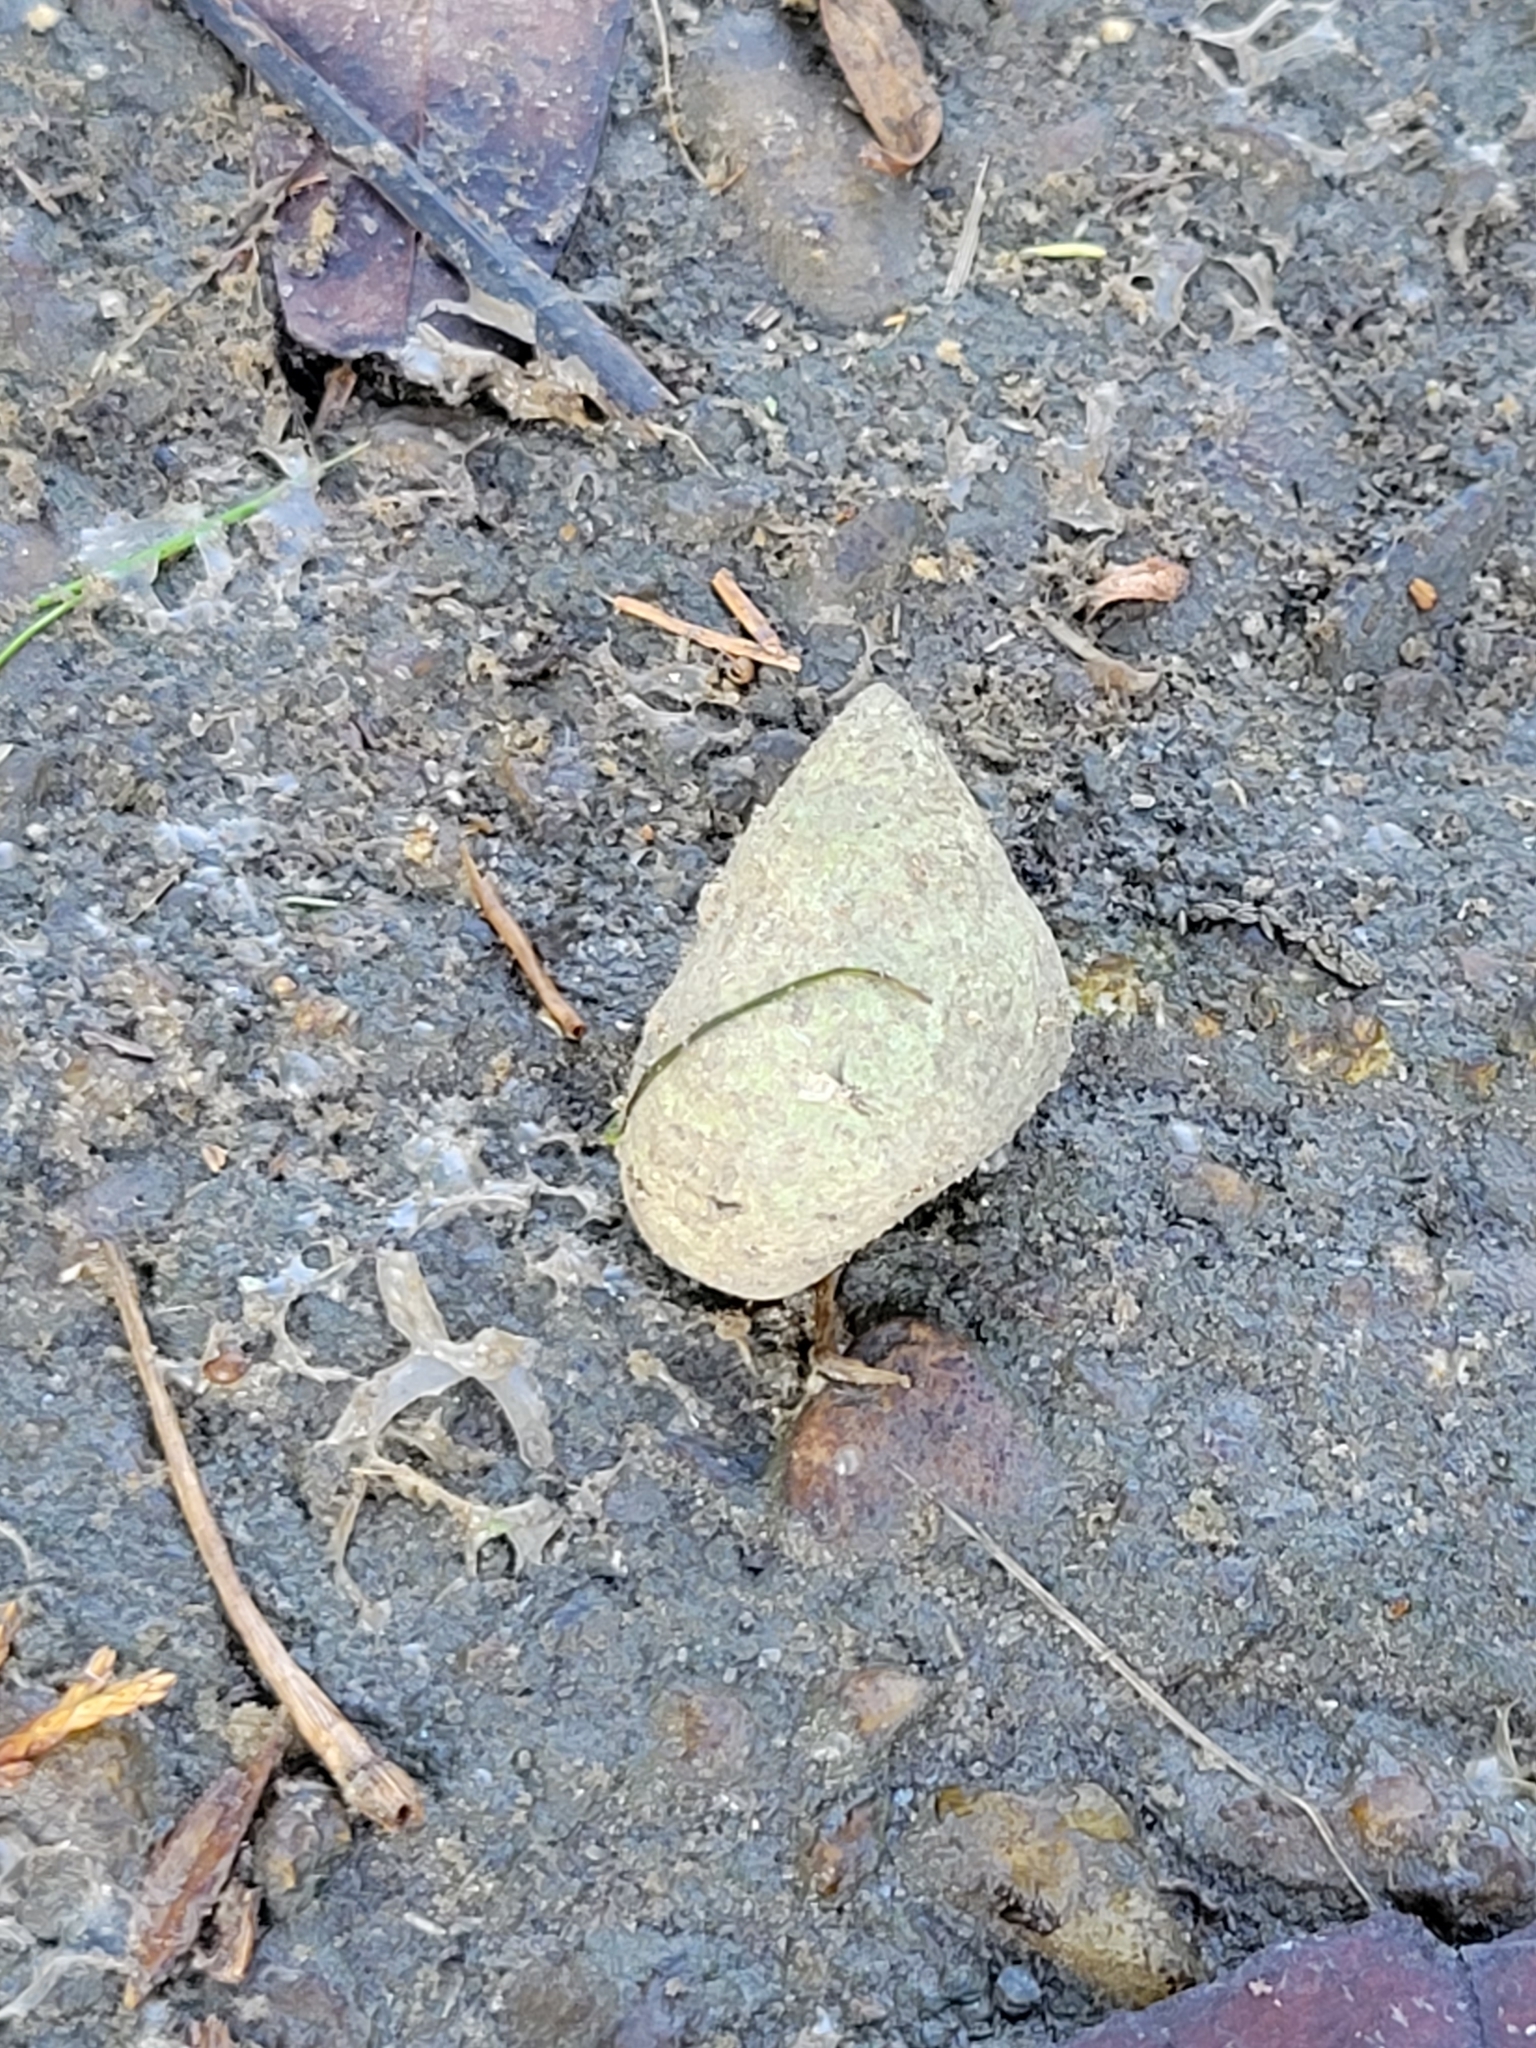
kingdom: Animalia
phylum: Mollusca
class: Gastropoda
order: Littorinimorpha
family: Littorinidae
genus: Littoraria
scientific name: Littoraria irrorata
